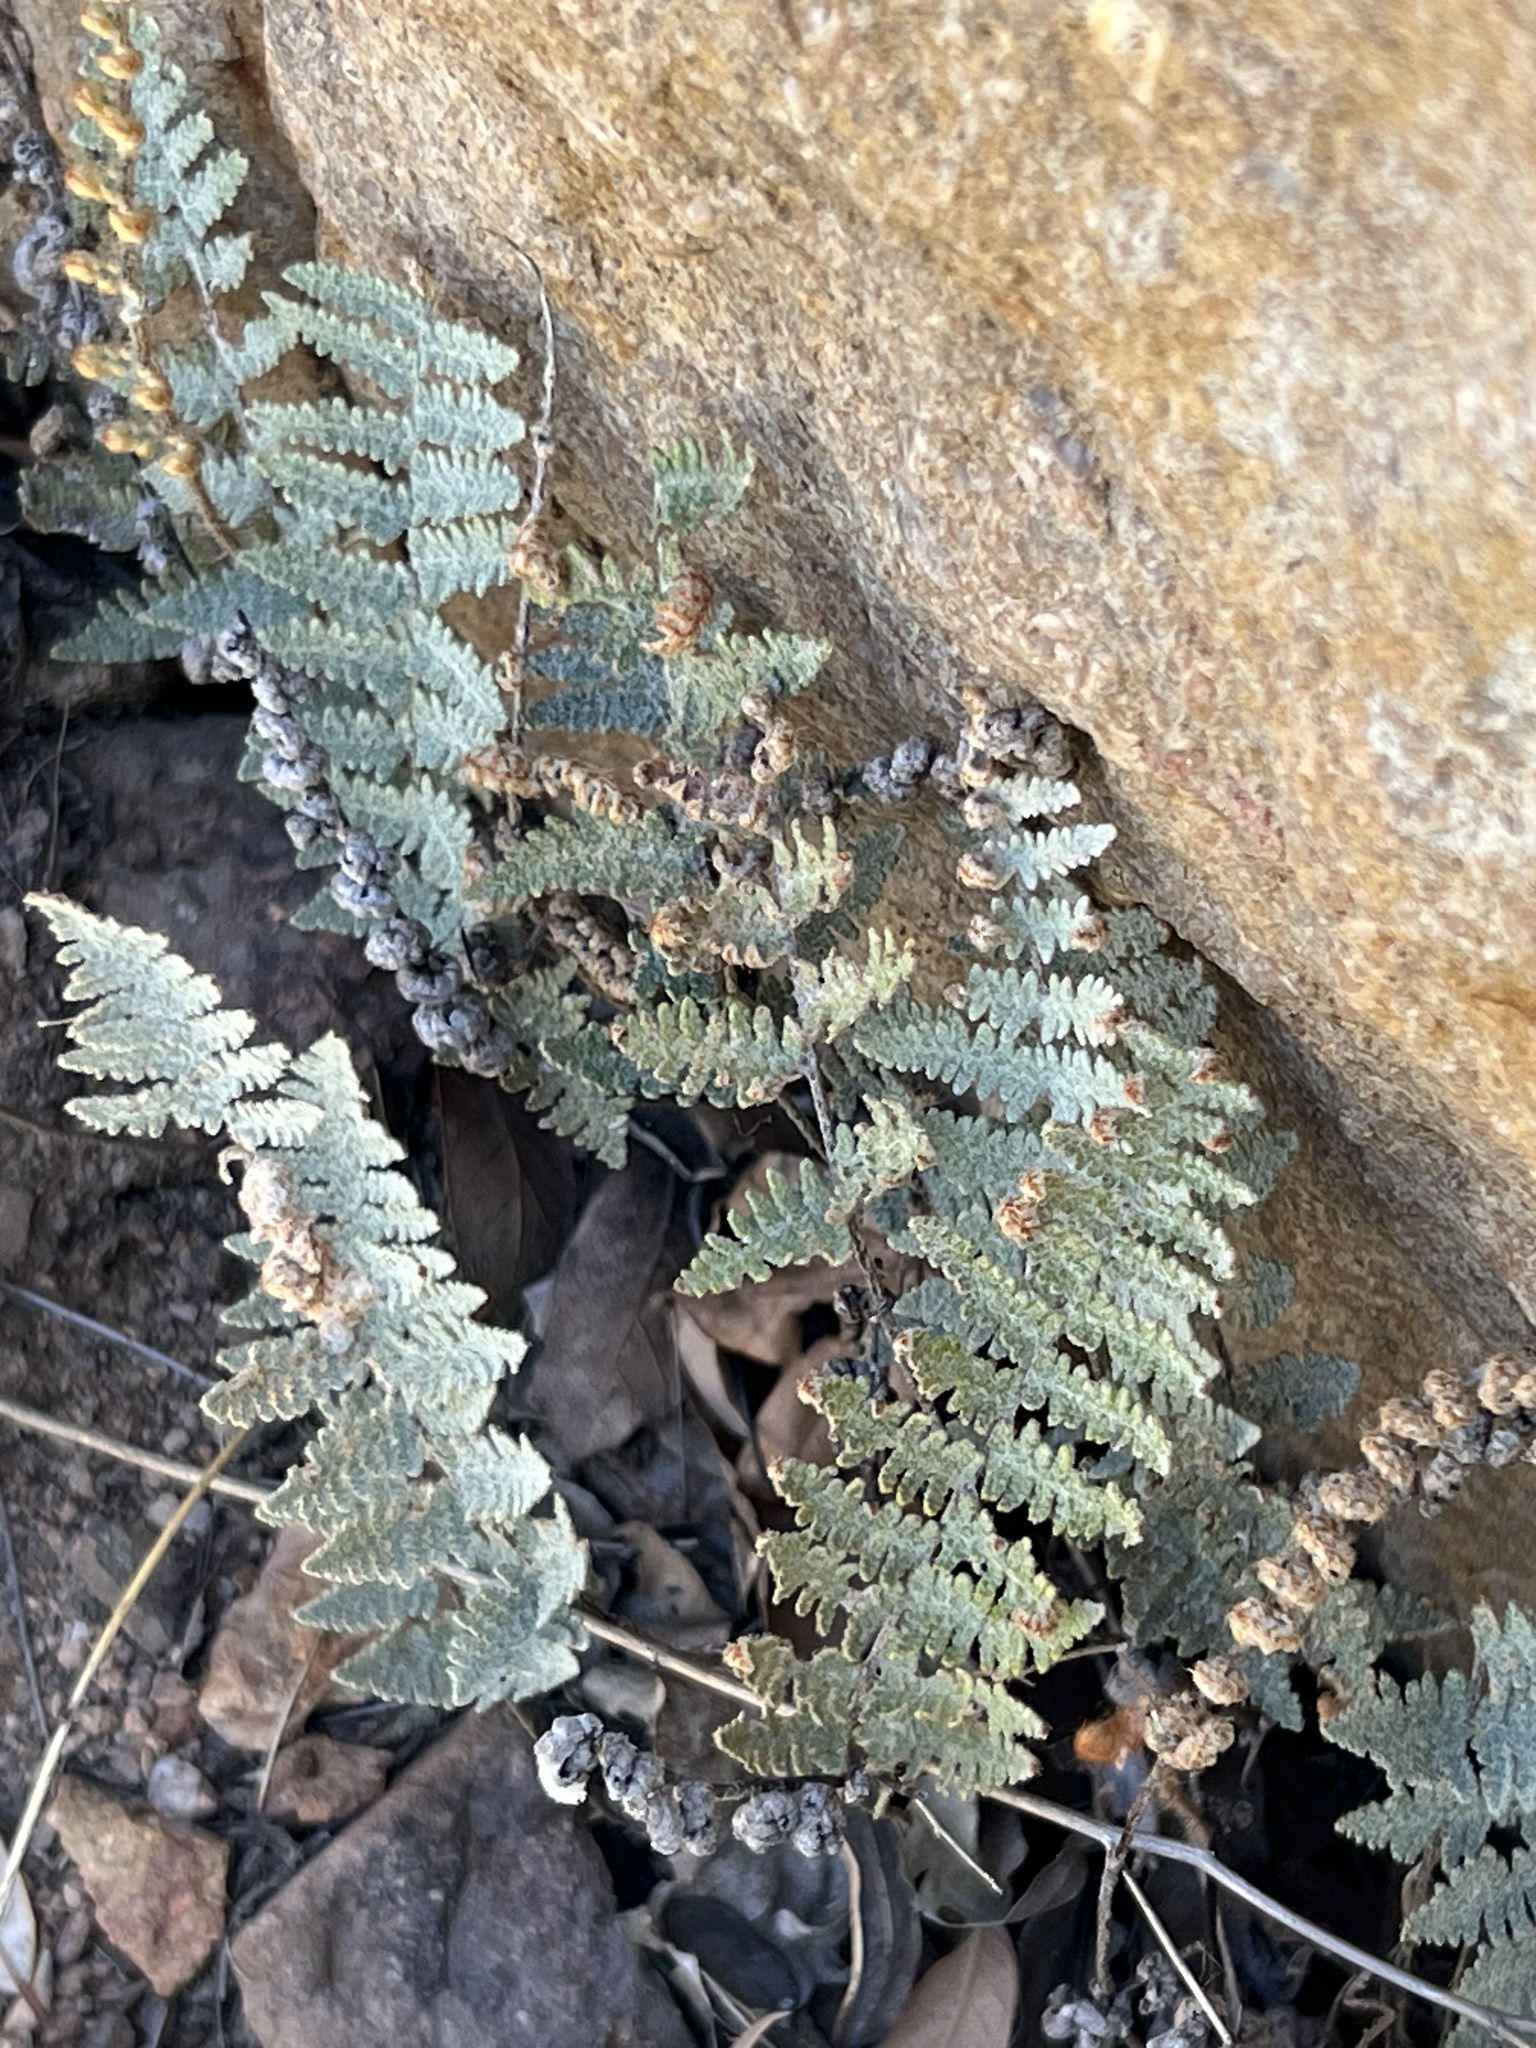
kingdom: Plantae
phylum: Tracheophyta
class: Polypodiopsida
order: Polypodiales
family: Pteridaceae
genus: Myriopteris
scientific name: Myriopteris lindheimeri
